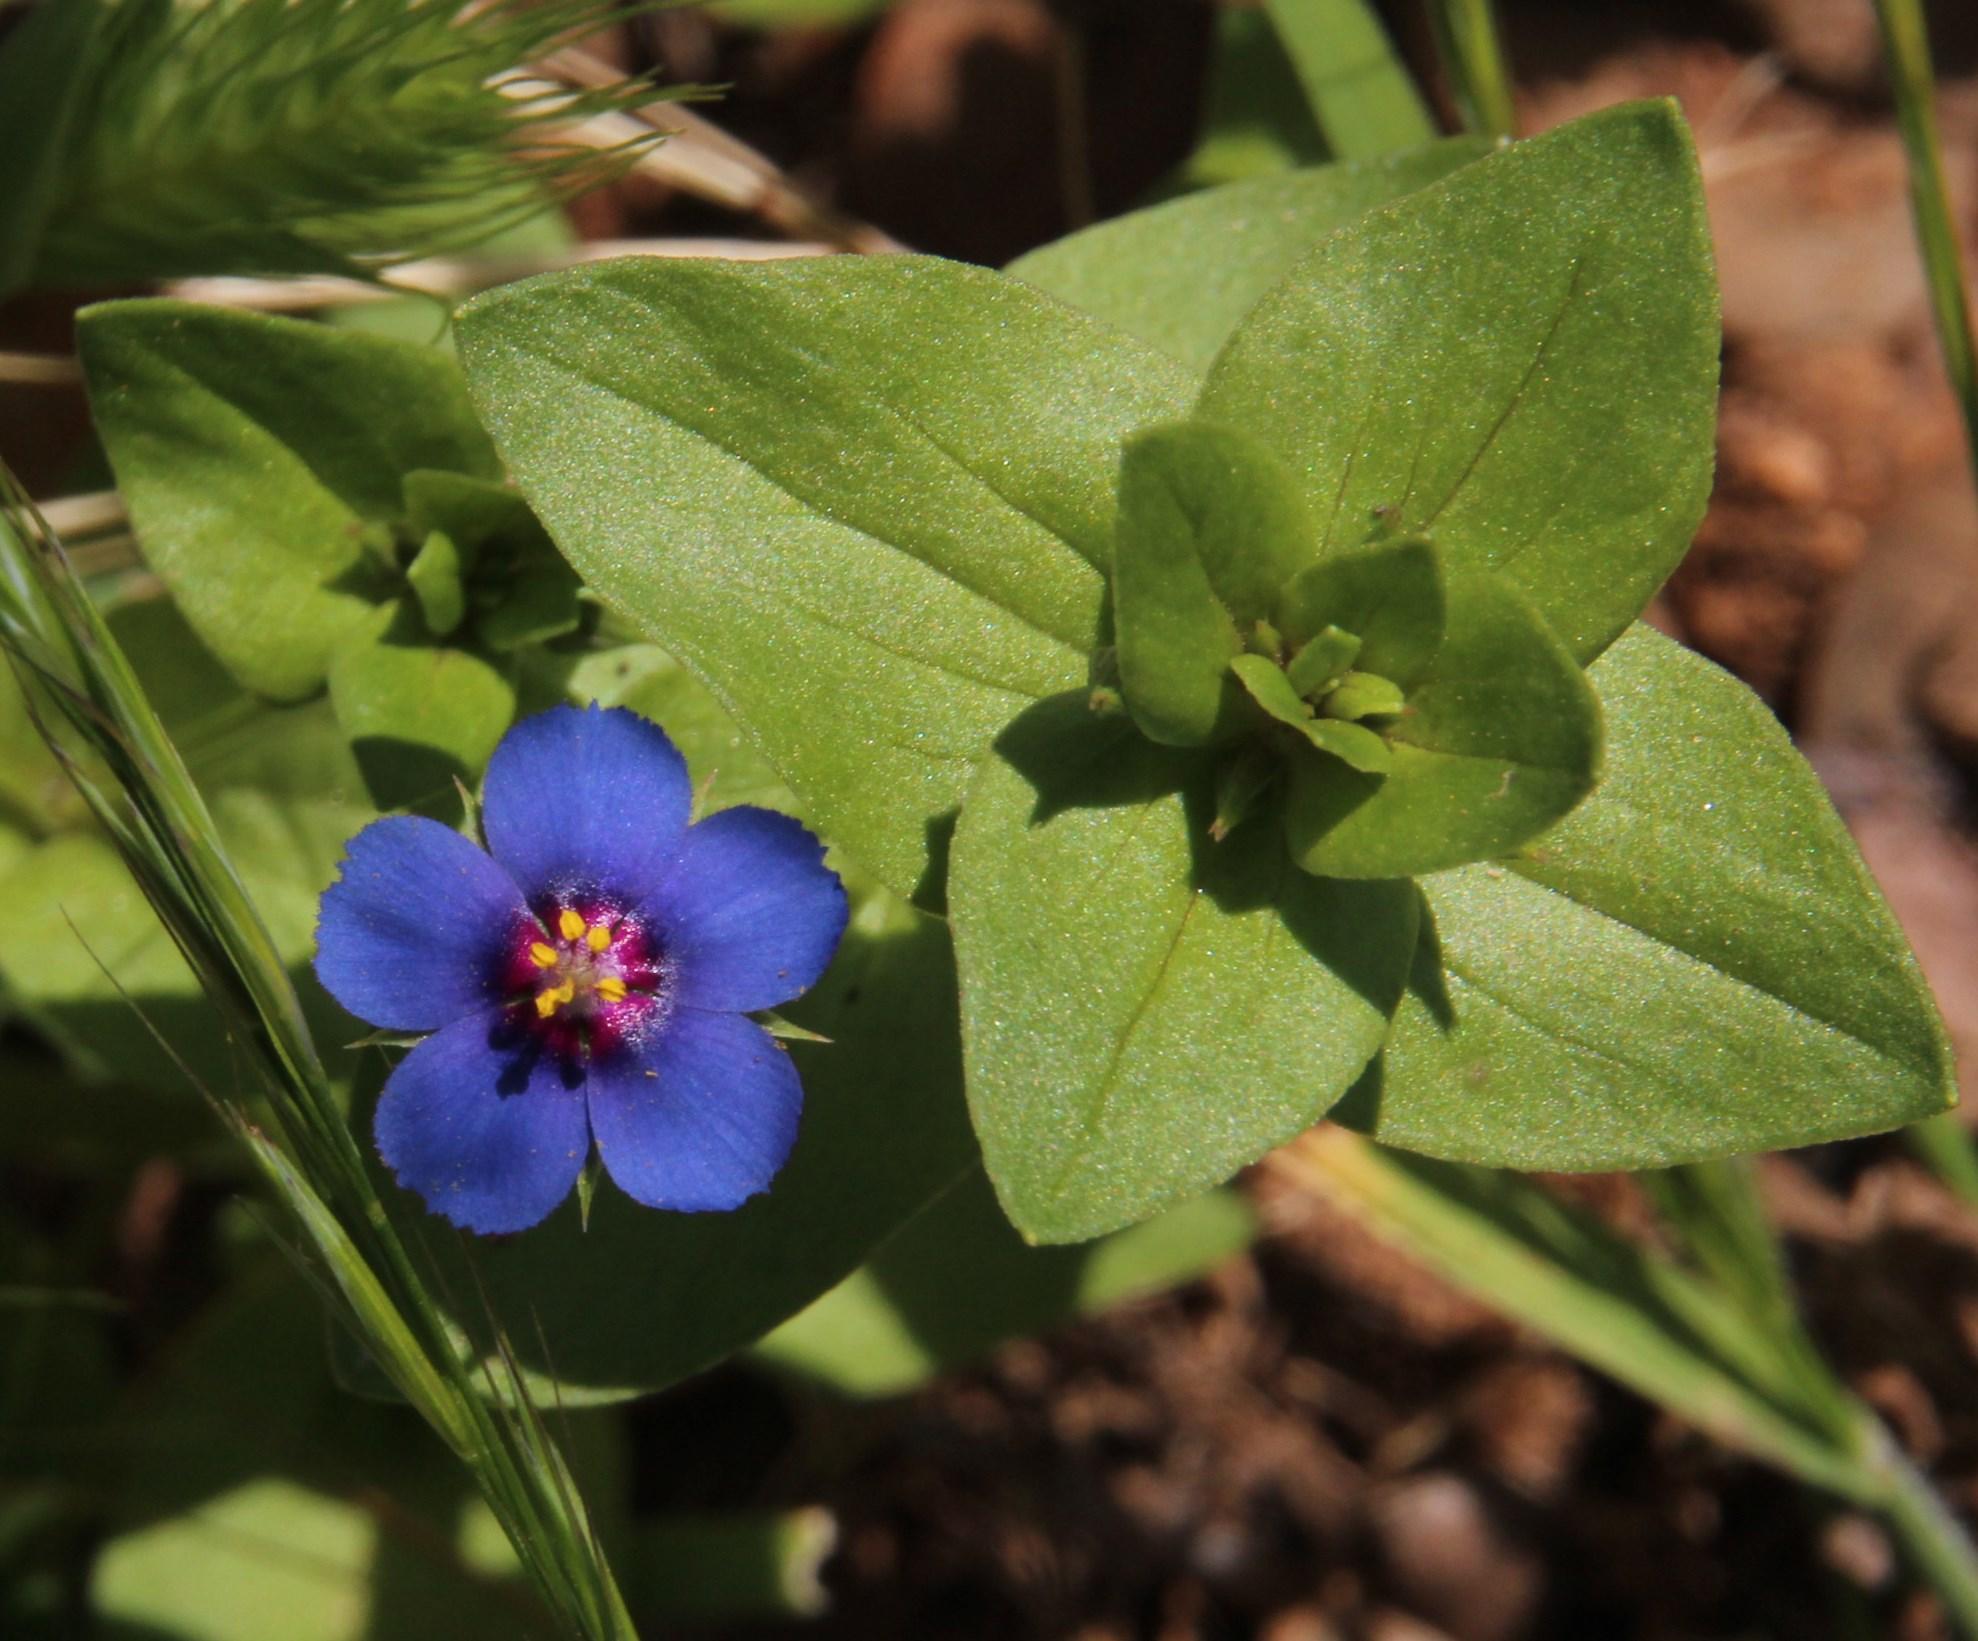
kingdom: Plantae
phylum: Tracheophyta
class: Magnoliopsida
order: Ericales
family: Primulaceae
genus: Lysimachia
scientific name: Lysimachia arvensis
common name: Scarlet pimpernel
